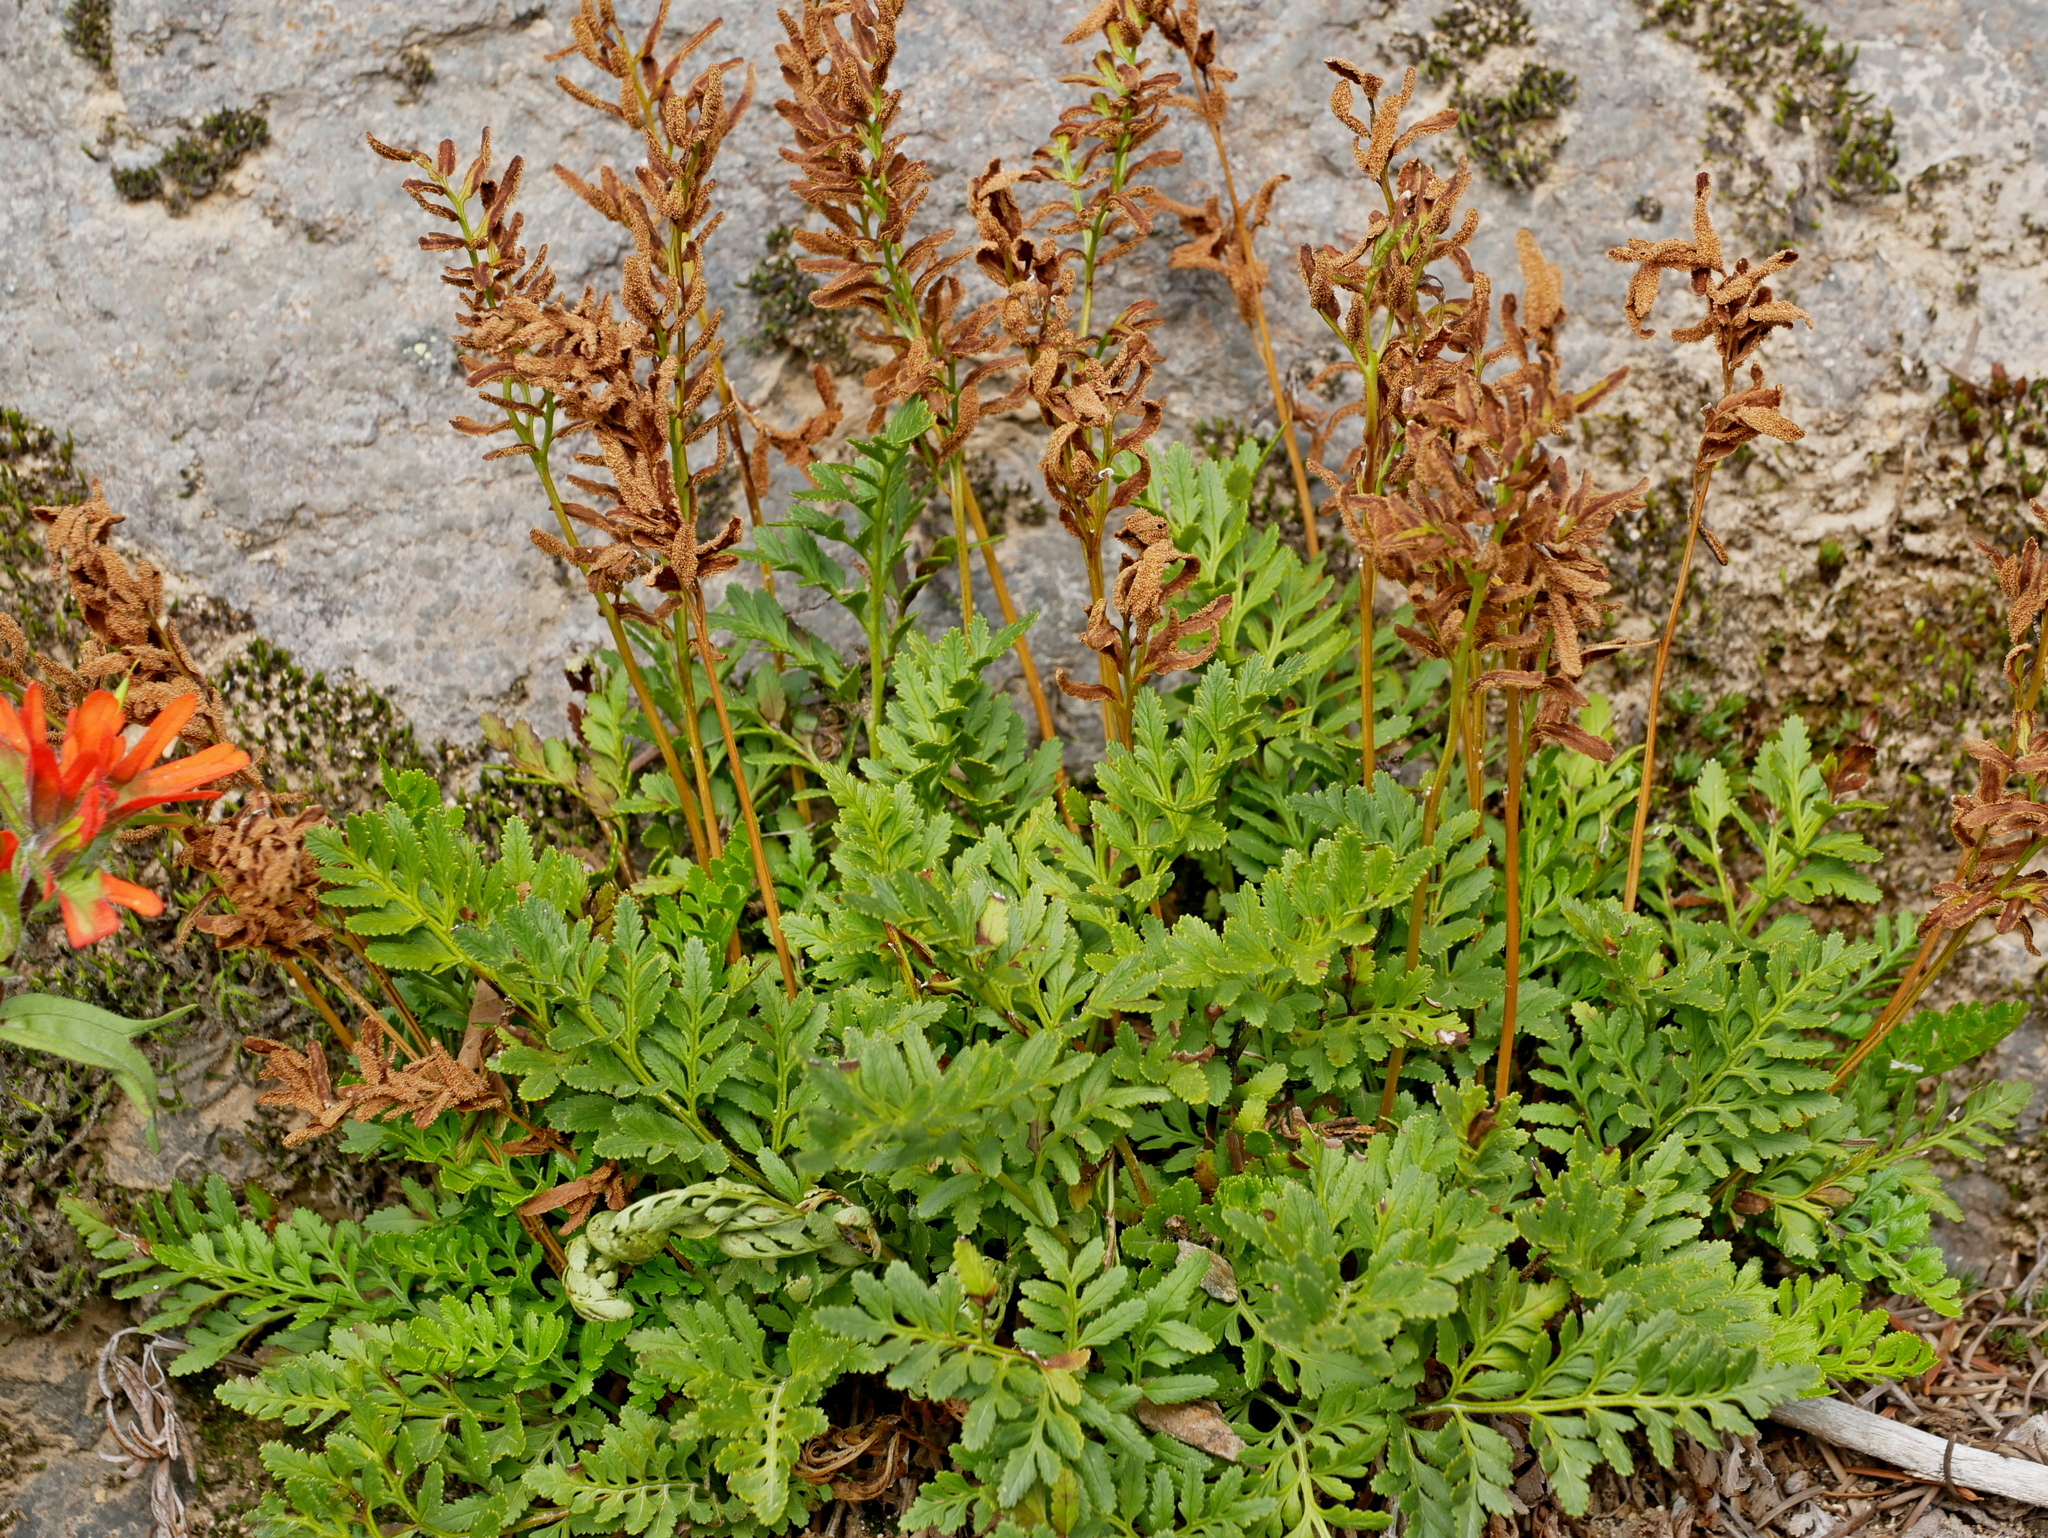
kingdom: Plantae
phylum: Tracheophyta
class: Polypodiopsida
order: Polypodiales
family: Pteridaceae
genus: Cryptogramma
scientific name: Cryptogramma acrostichoides
